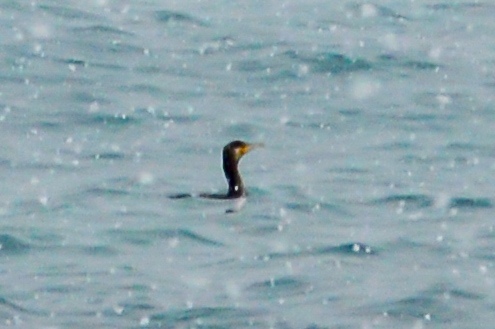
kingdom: Animalia
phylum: Chordata
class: Aves
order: Suliformes
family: Phalacrocoracidae
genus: Phalacrocorax
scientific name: Phalacrocorax carbo
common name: Great cormorant
